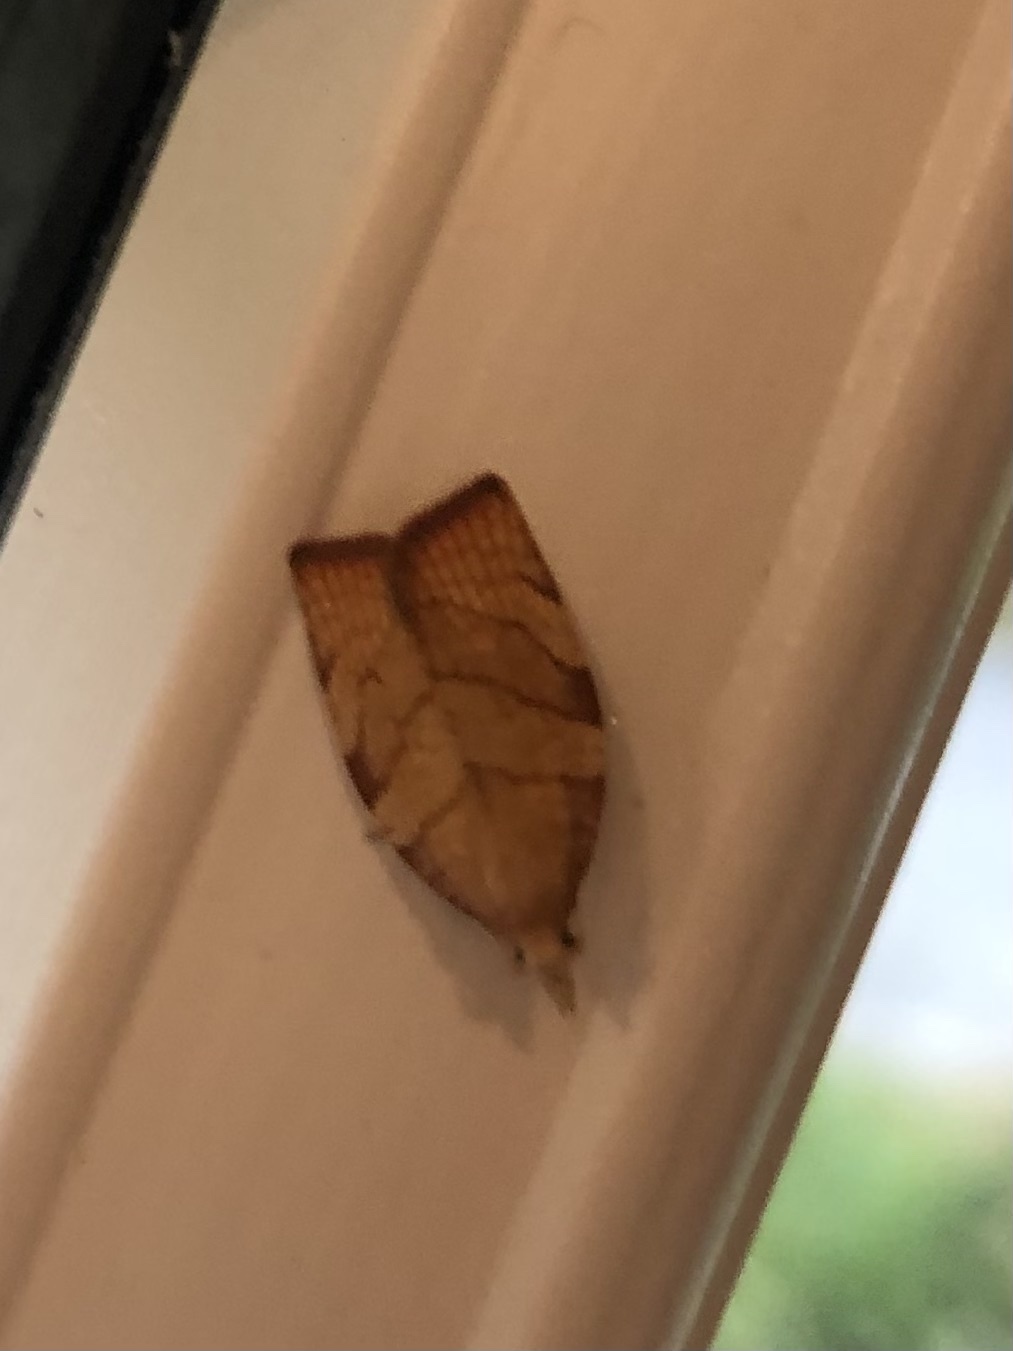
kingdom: Animalia
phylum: Arthropoda
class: Insecta
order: Lepidoptera
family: Tortricidae
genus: Pandemis
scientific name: Pandemis corylana
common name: Chequered fruit-tree tortrix
